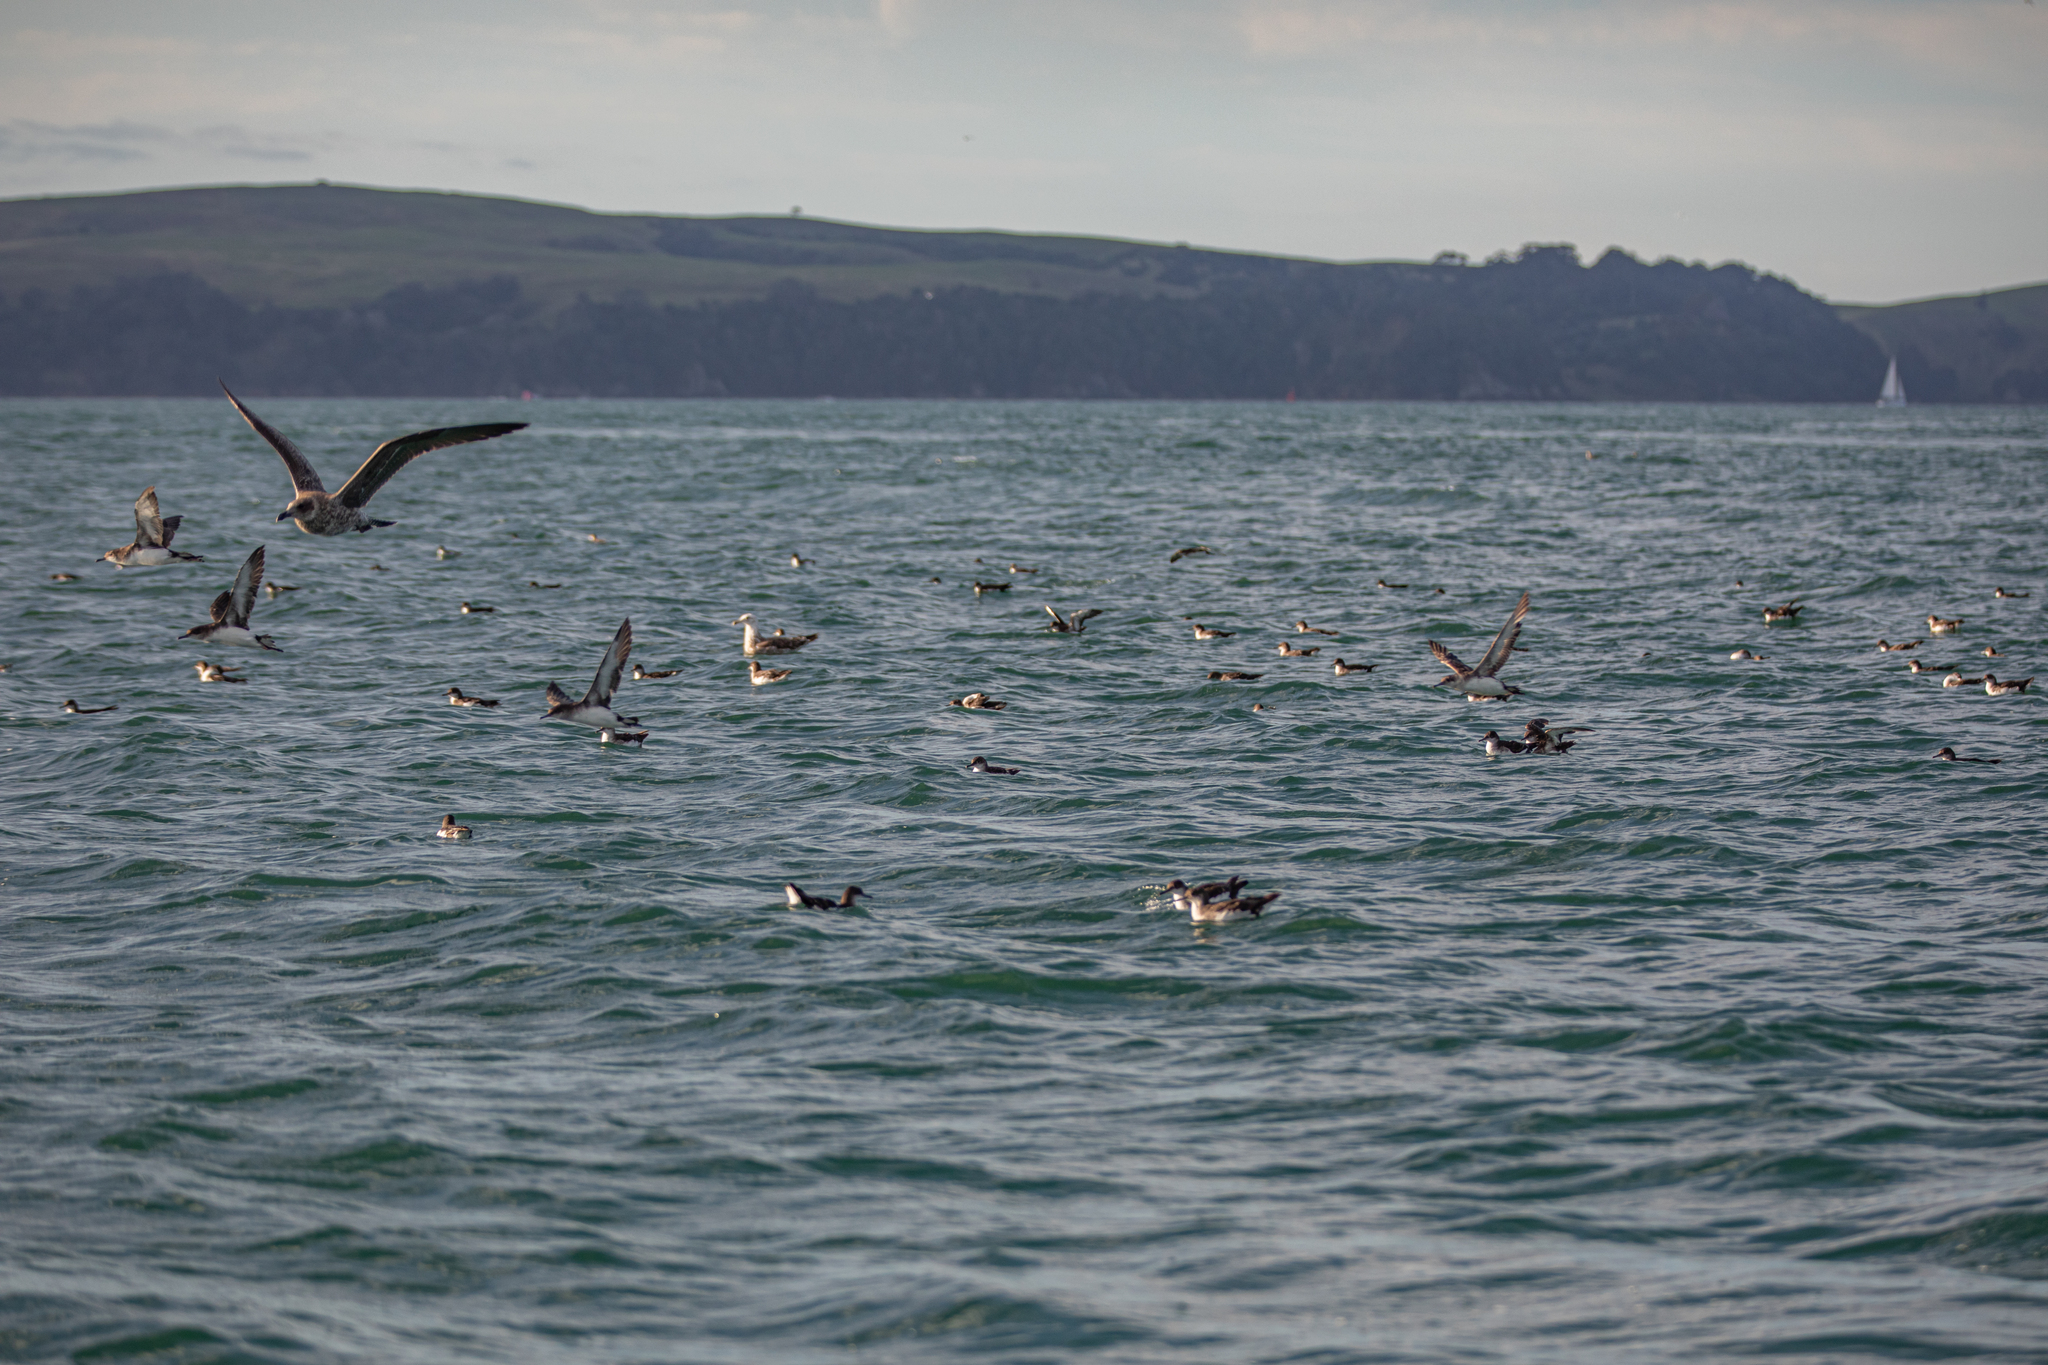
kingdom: Animalia
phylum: Chordata
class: Aves
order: Procellariiformes
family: Procellariidae
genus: Puffinus
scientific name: Puffinus gavia
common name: Fluttering shearwater
